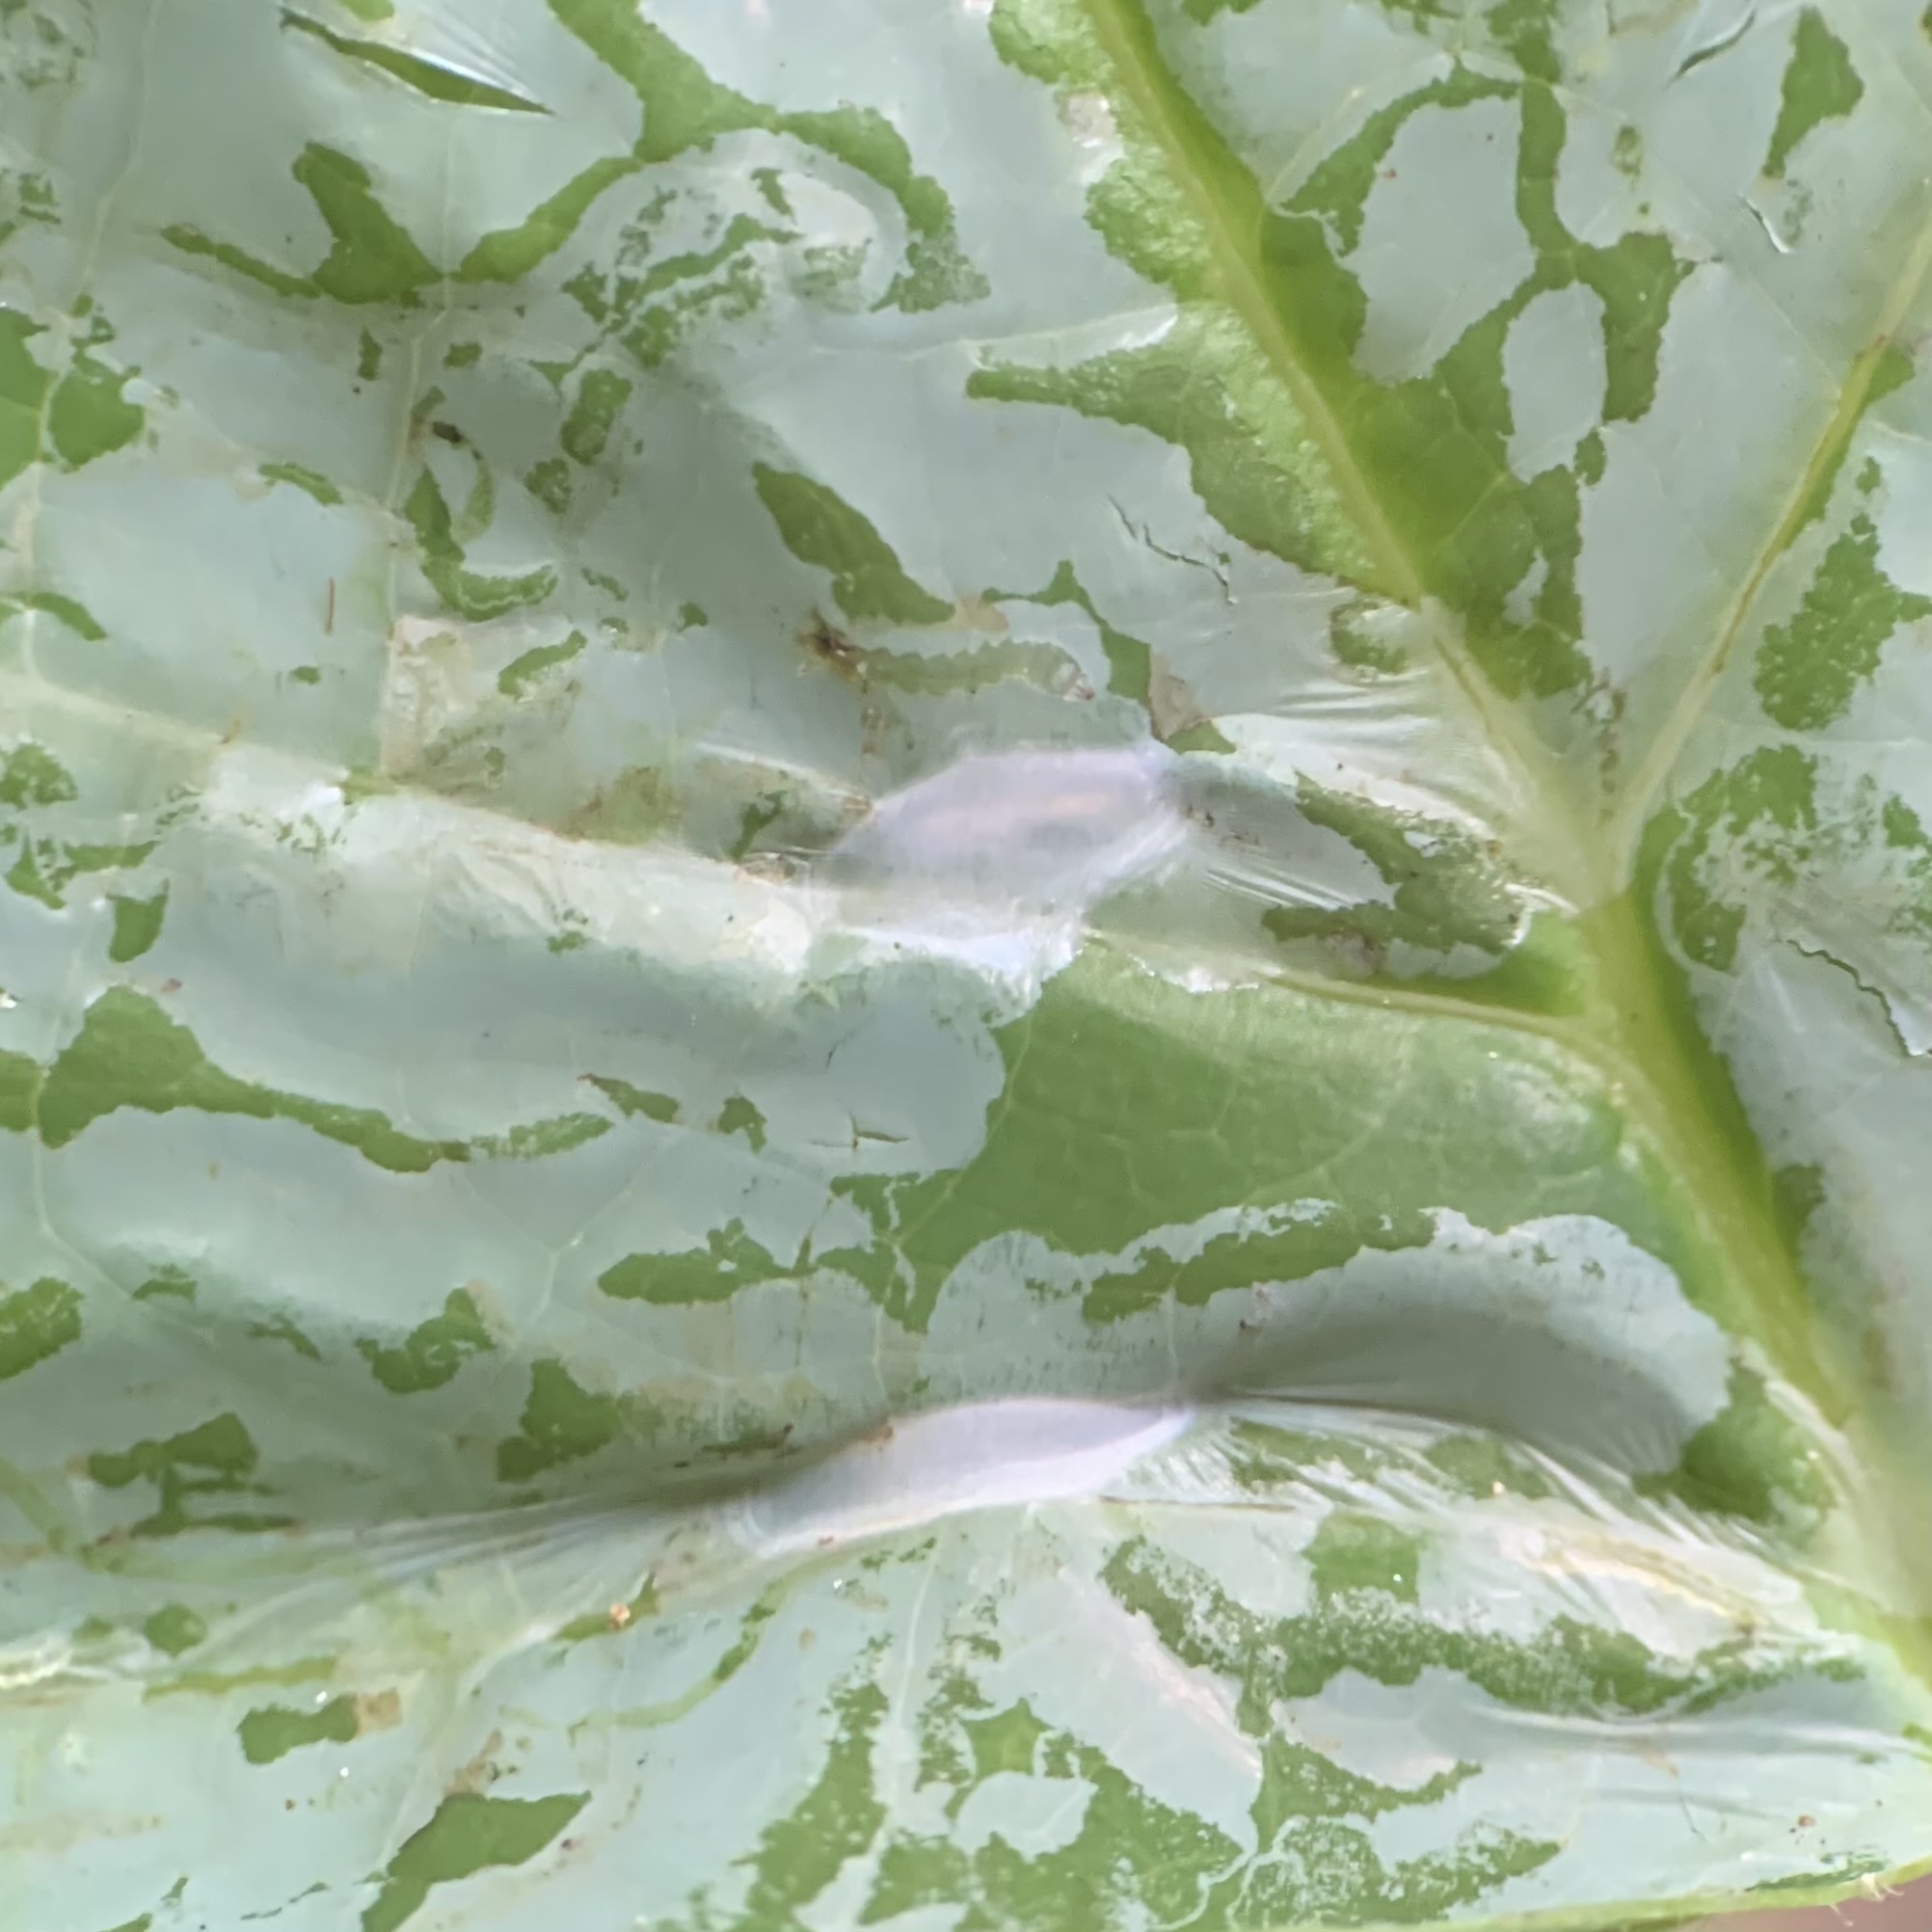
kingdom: Animalia
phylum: Arthropoda
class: Insecta
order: Lepidoptera
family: Gracillariidae
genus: Phyllocnistis
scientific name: Phyllocnistis liriodendronella
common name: Tulip tree leaf miner
